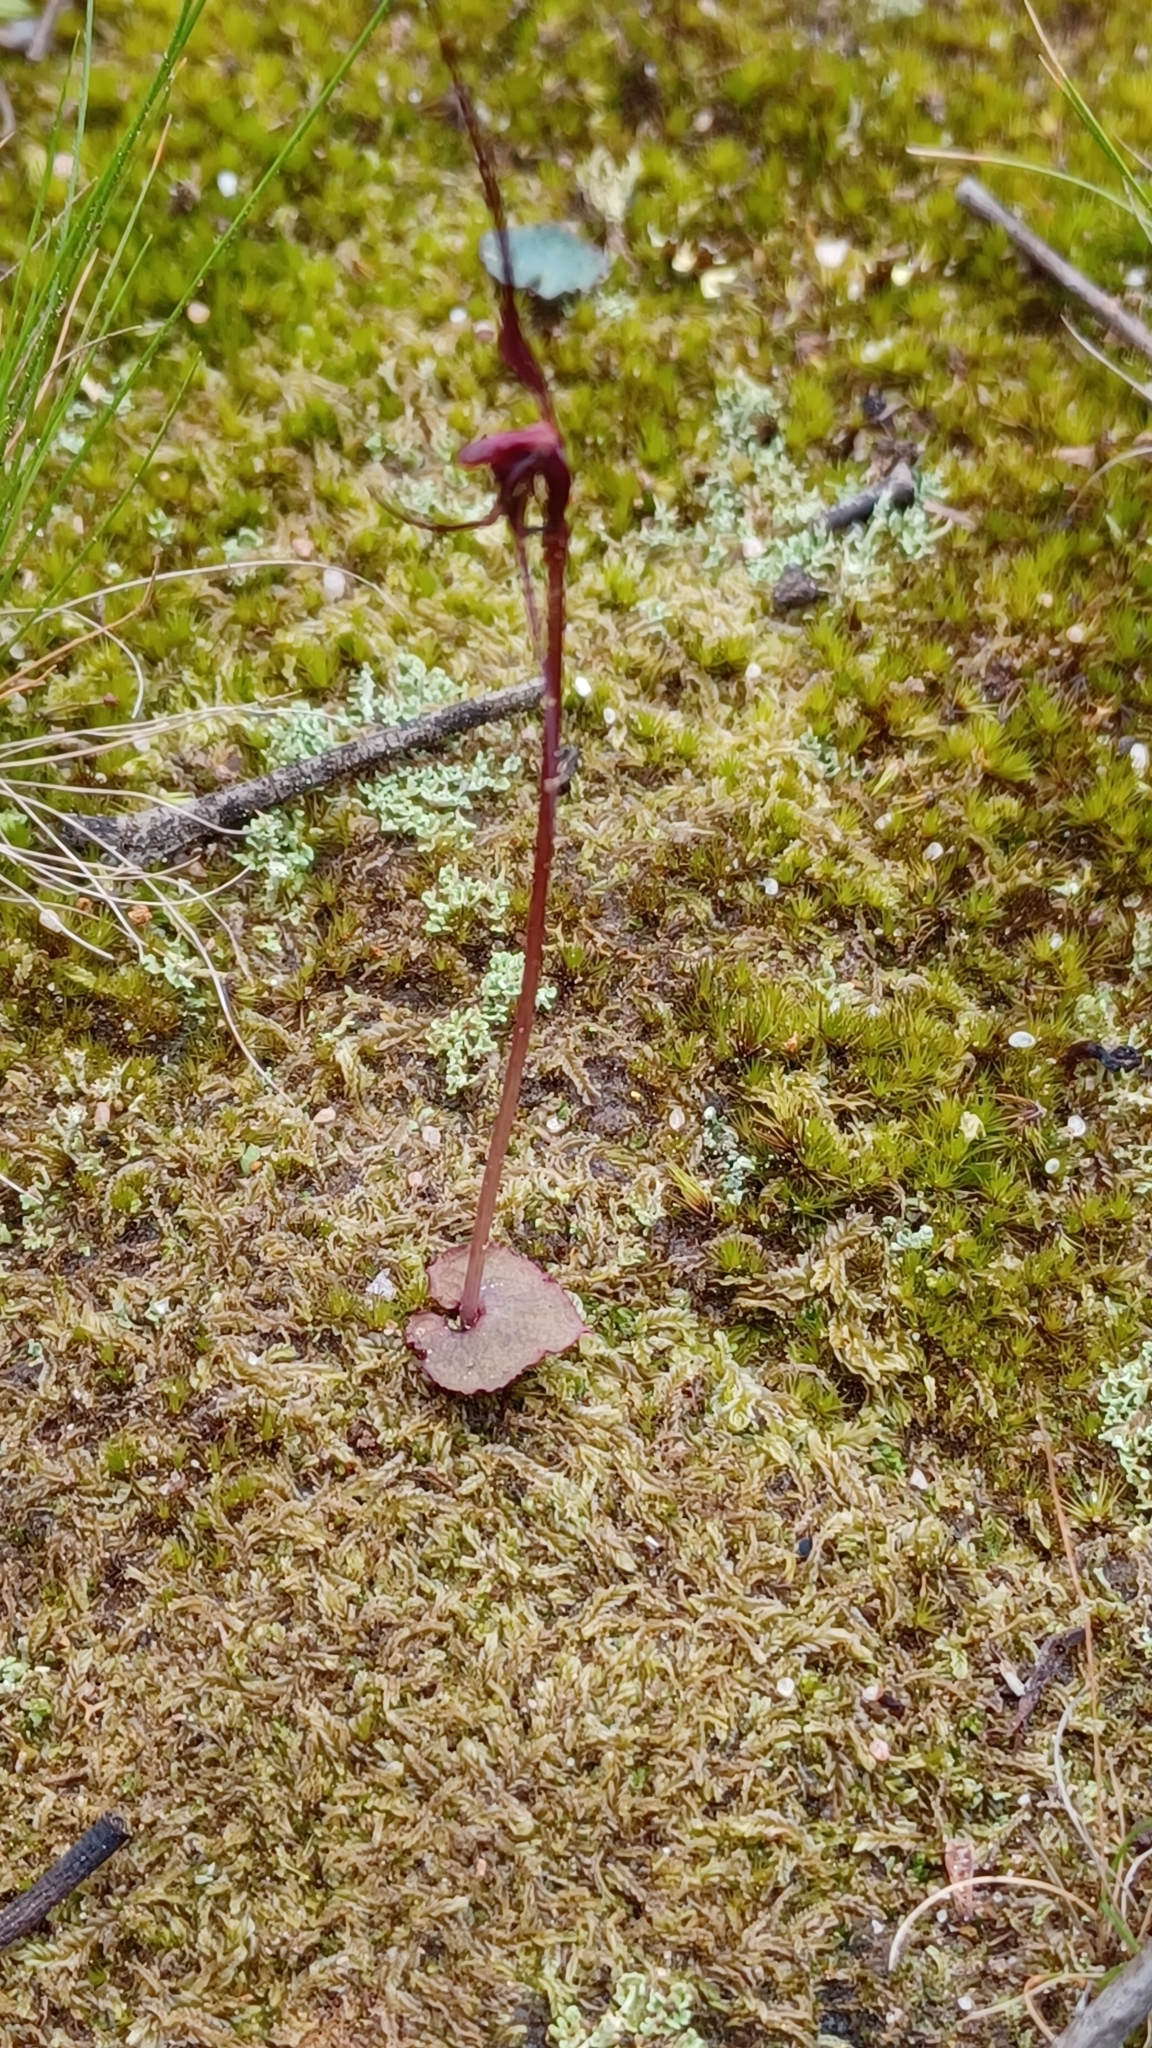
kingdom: Plantae
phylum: Tracheophyta
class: Liliopsida
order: Asparagales
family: Orchidaceae
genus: Acianthus
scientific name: Acianthus caudatus
